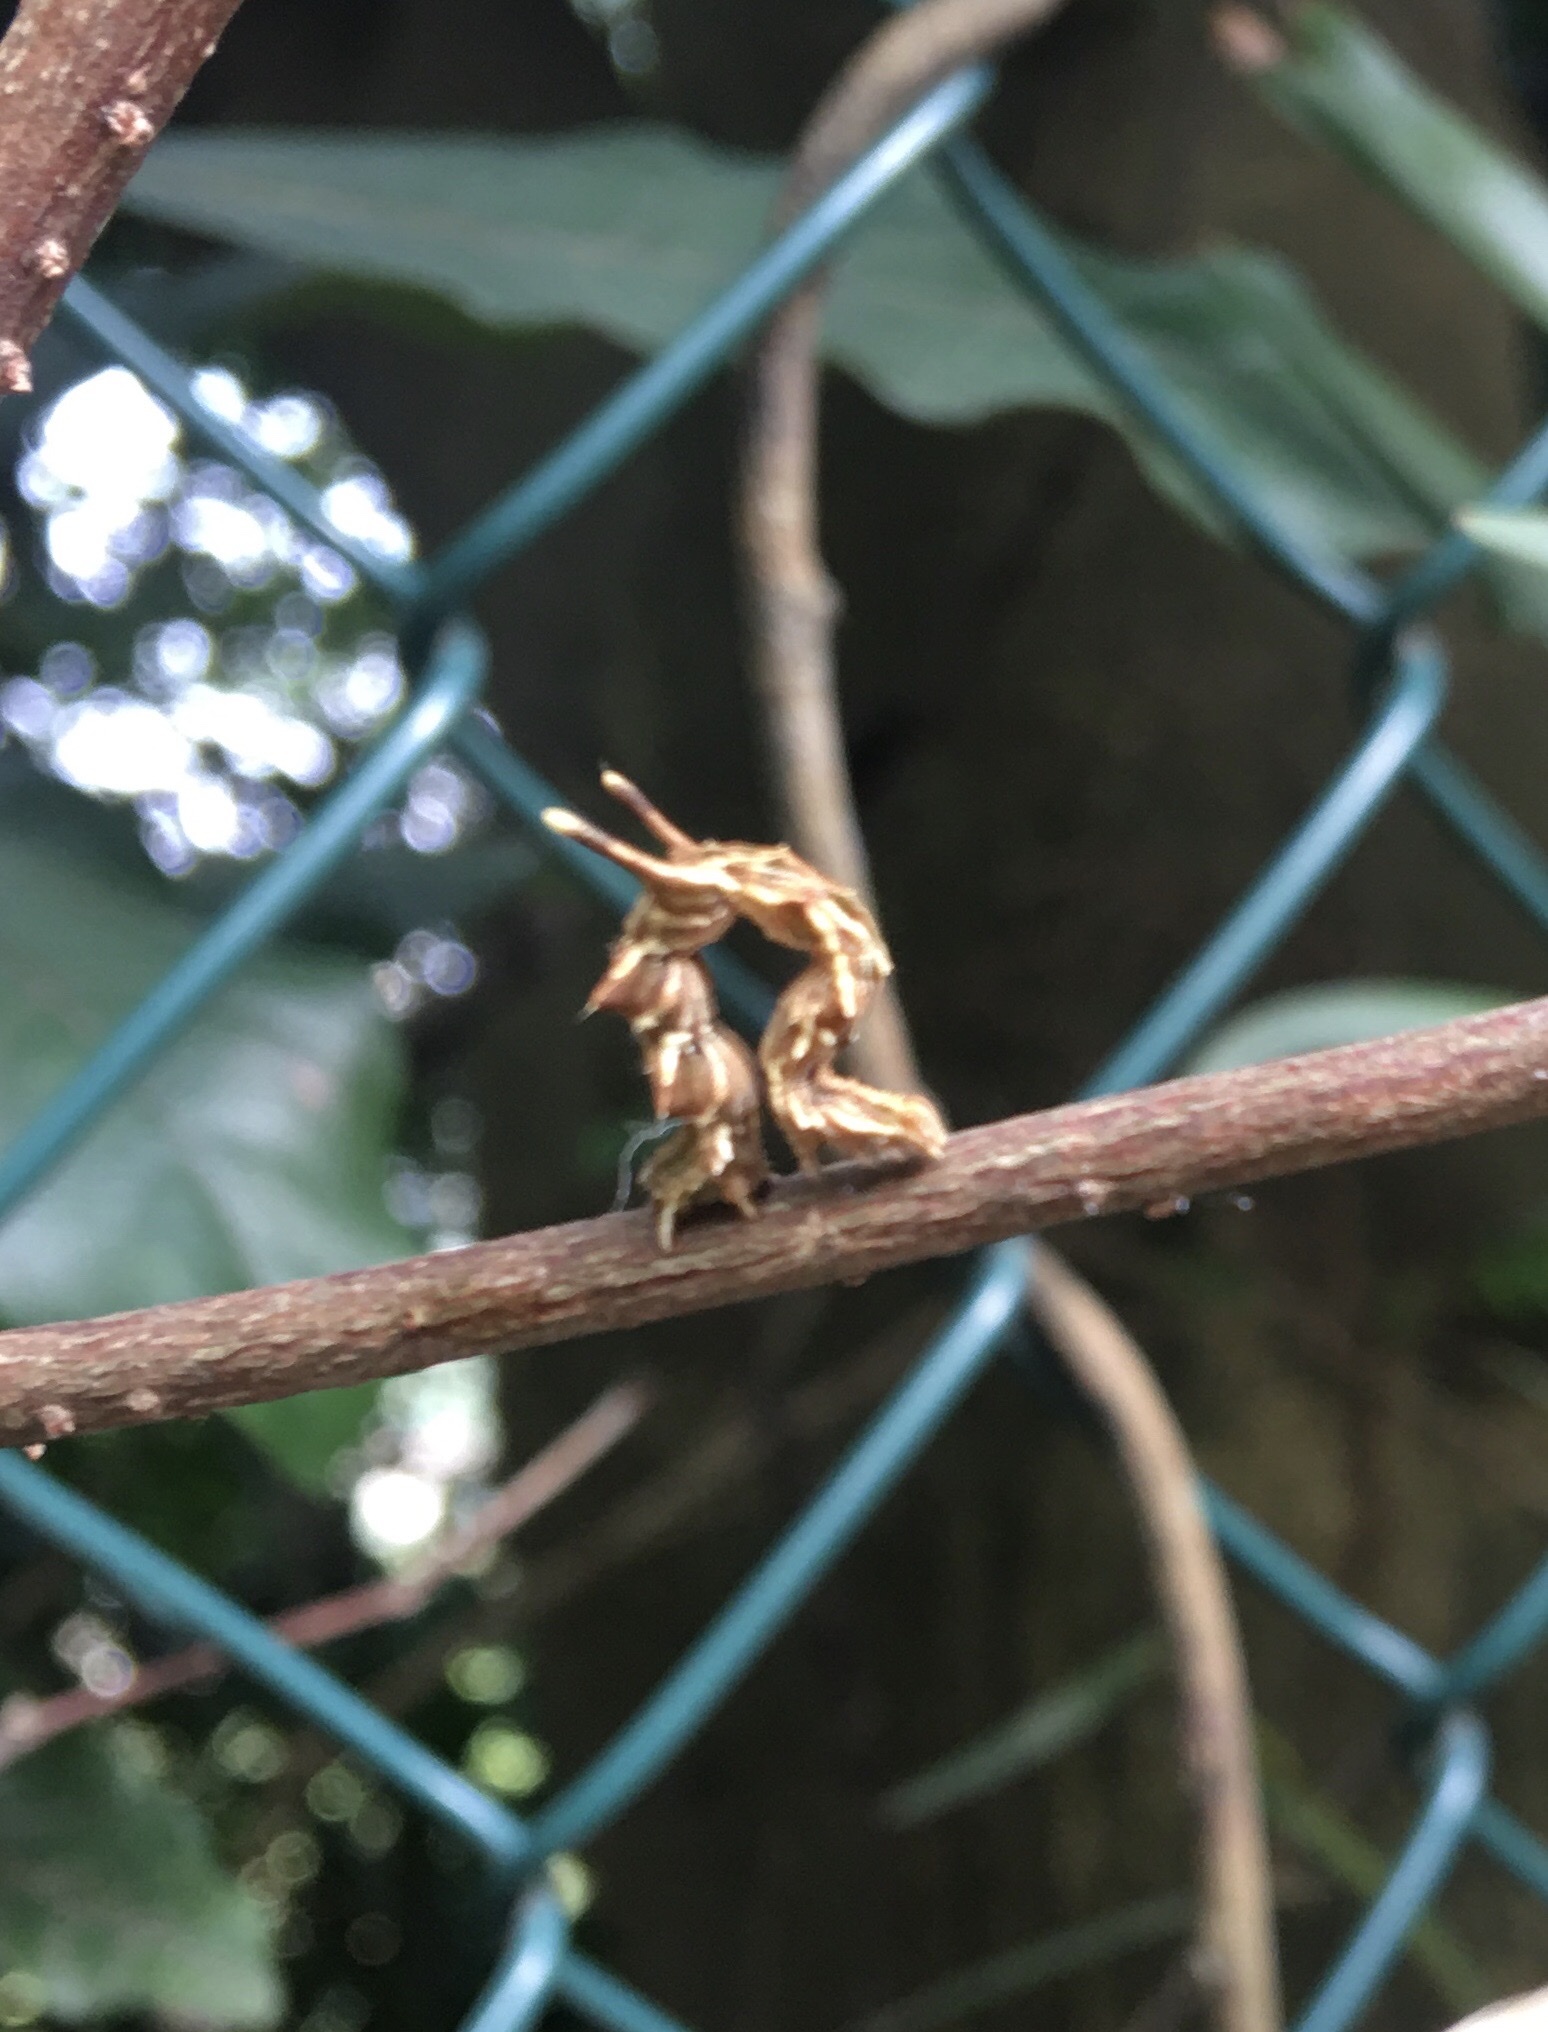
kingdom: Animalia
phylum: Arthropoda
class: Insecta
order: Lepidoptera
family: Geometridae
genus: Traminda
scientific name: Traminda aventiaria
